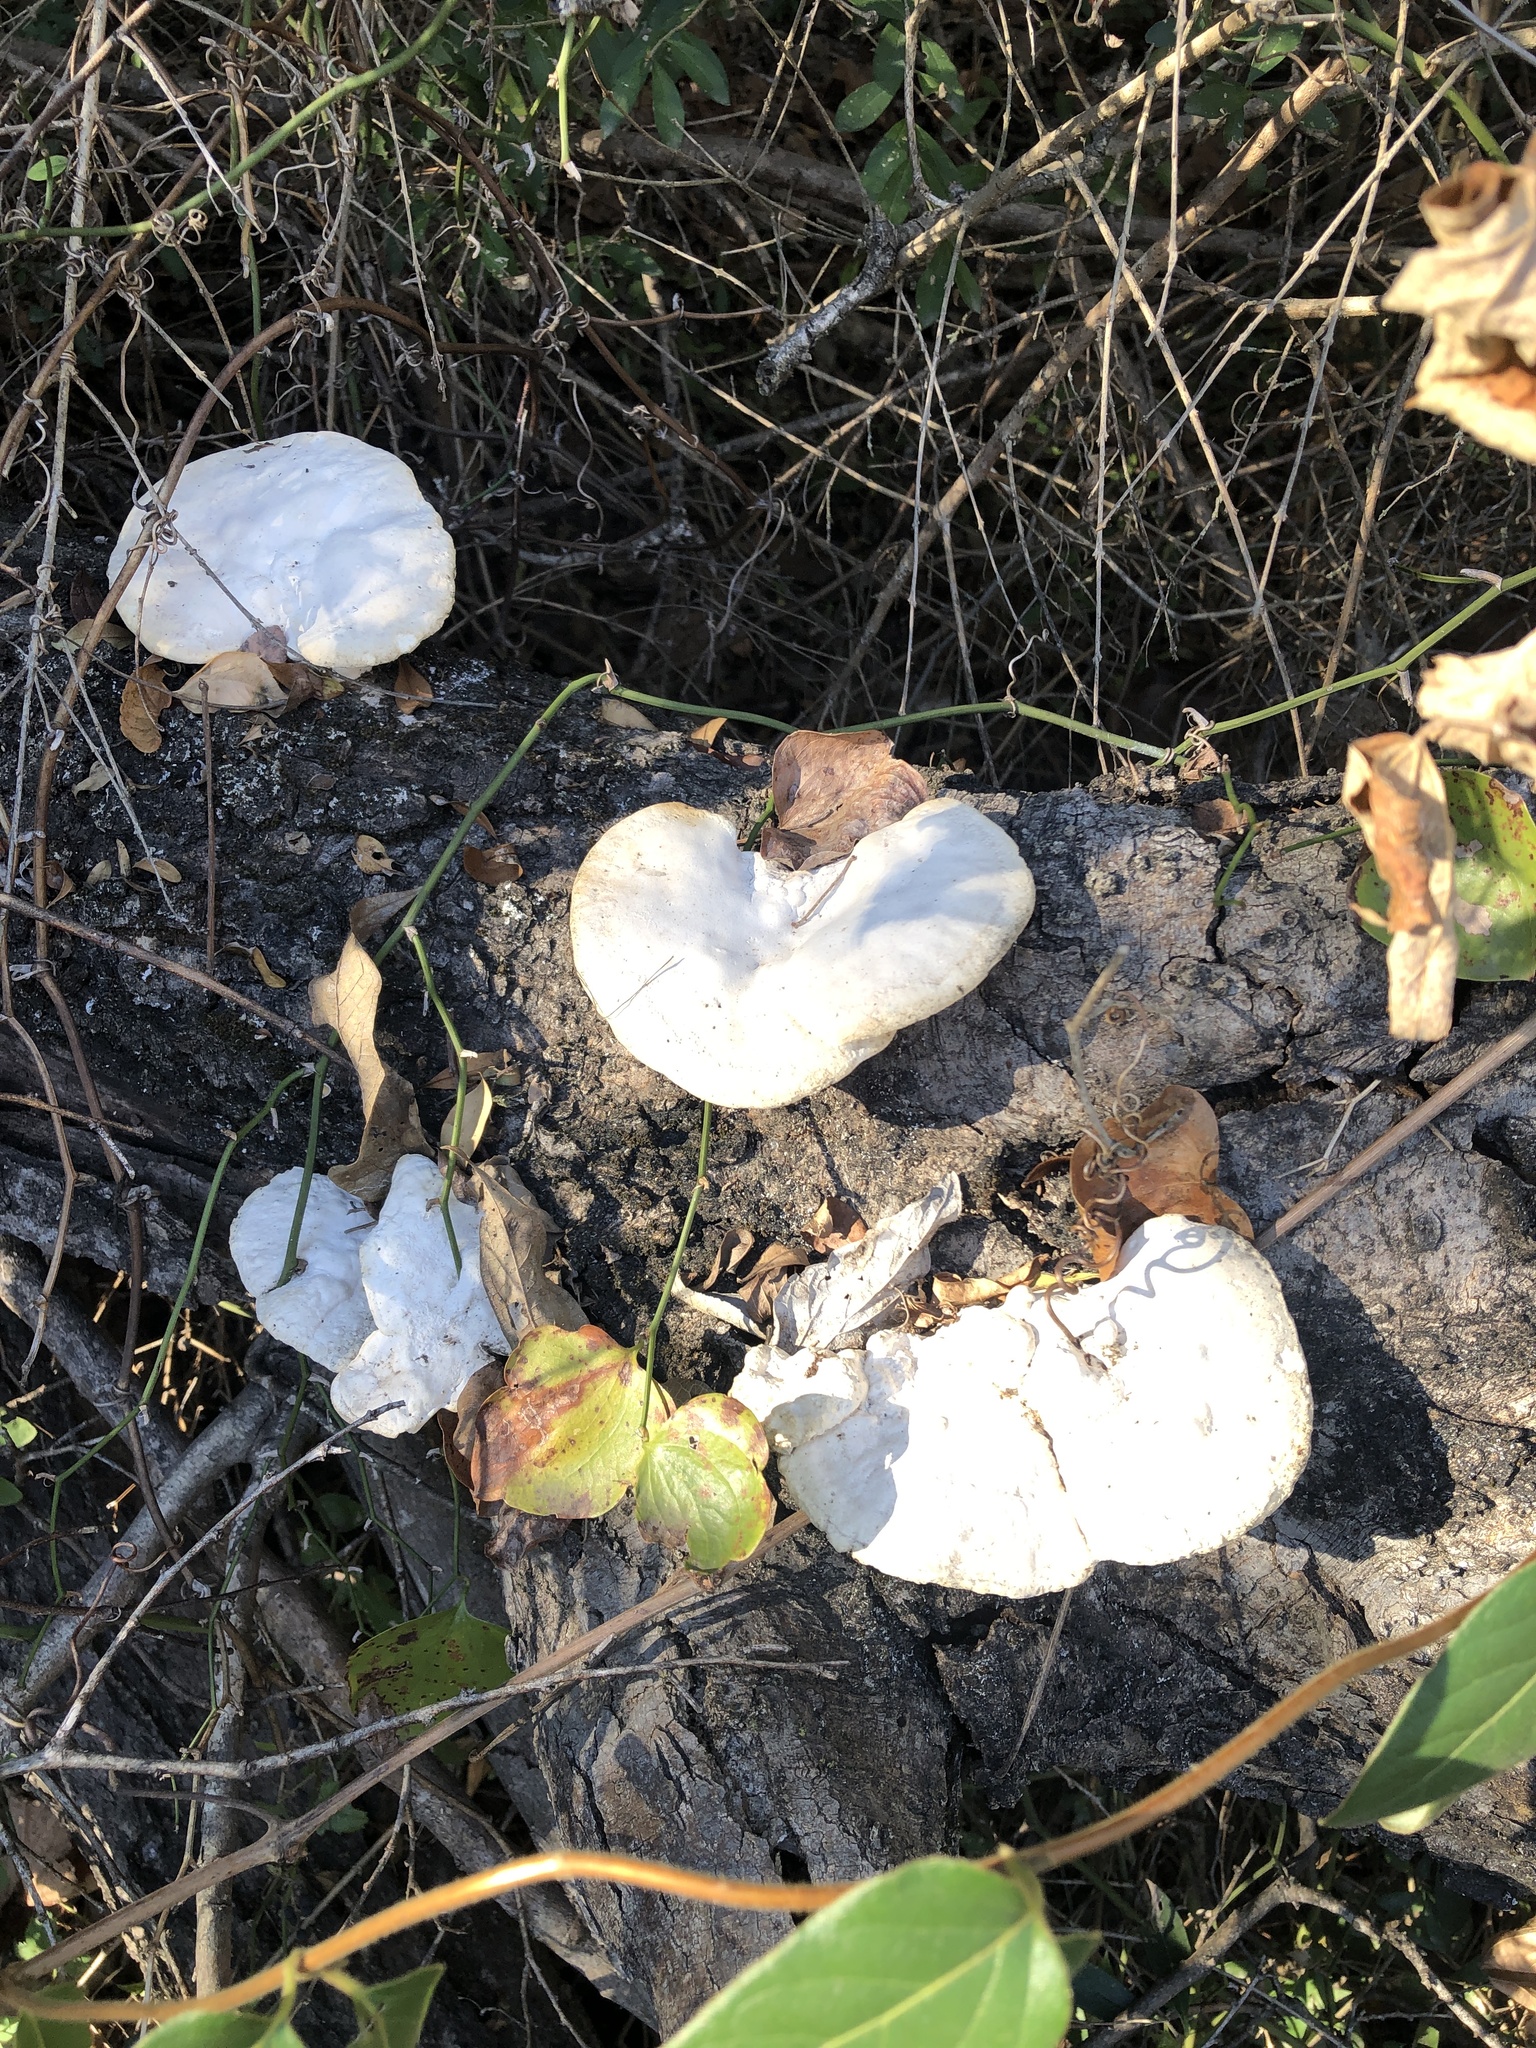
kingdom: Fungi
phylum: Basidiomycota
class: Agaricomycetes
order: Polyporales
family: Polyporaceae
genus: Trametes
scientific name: Trametes
